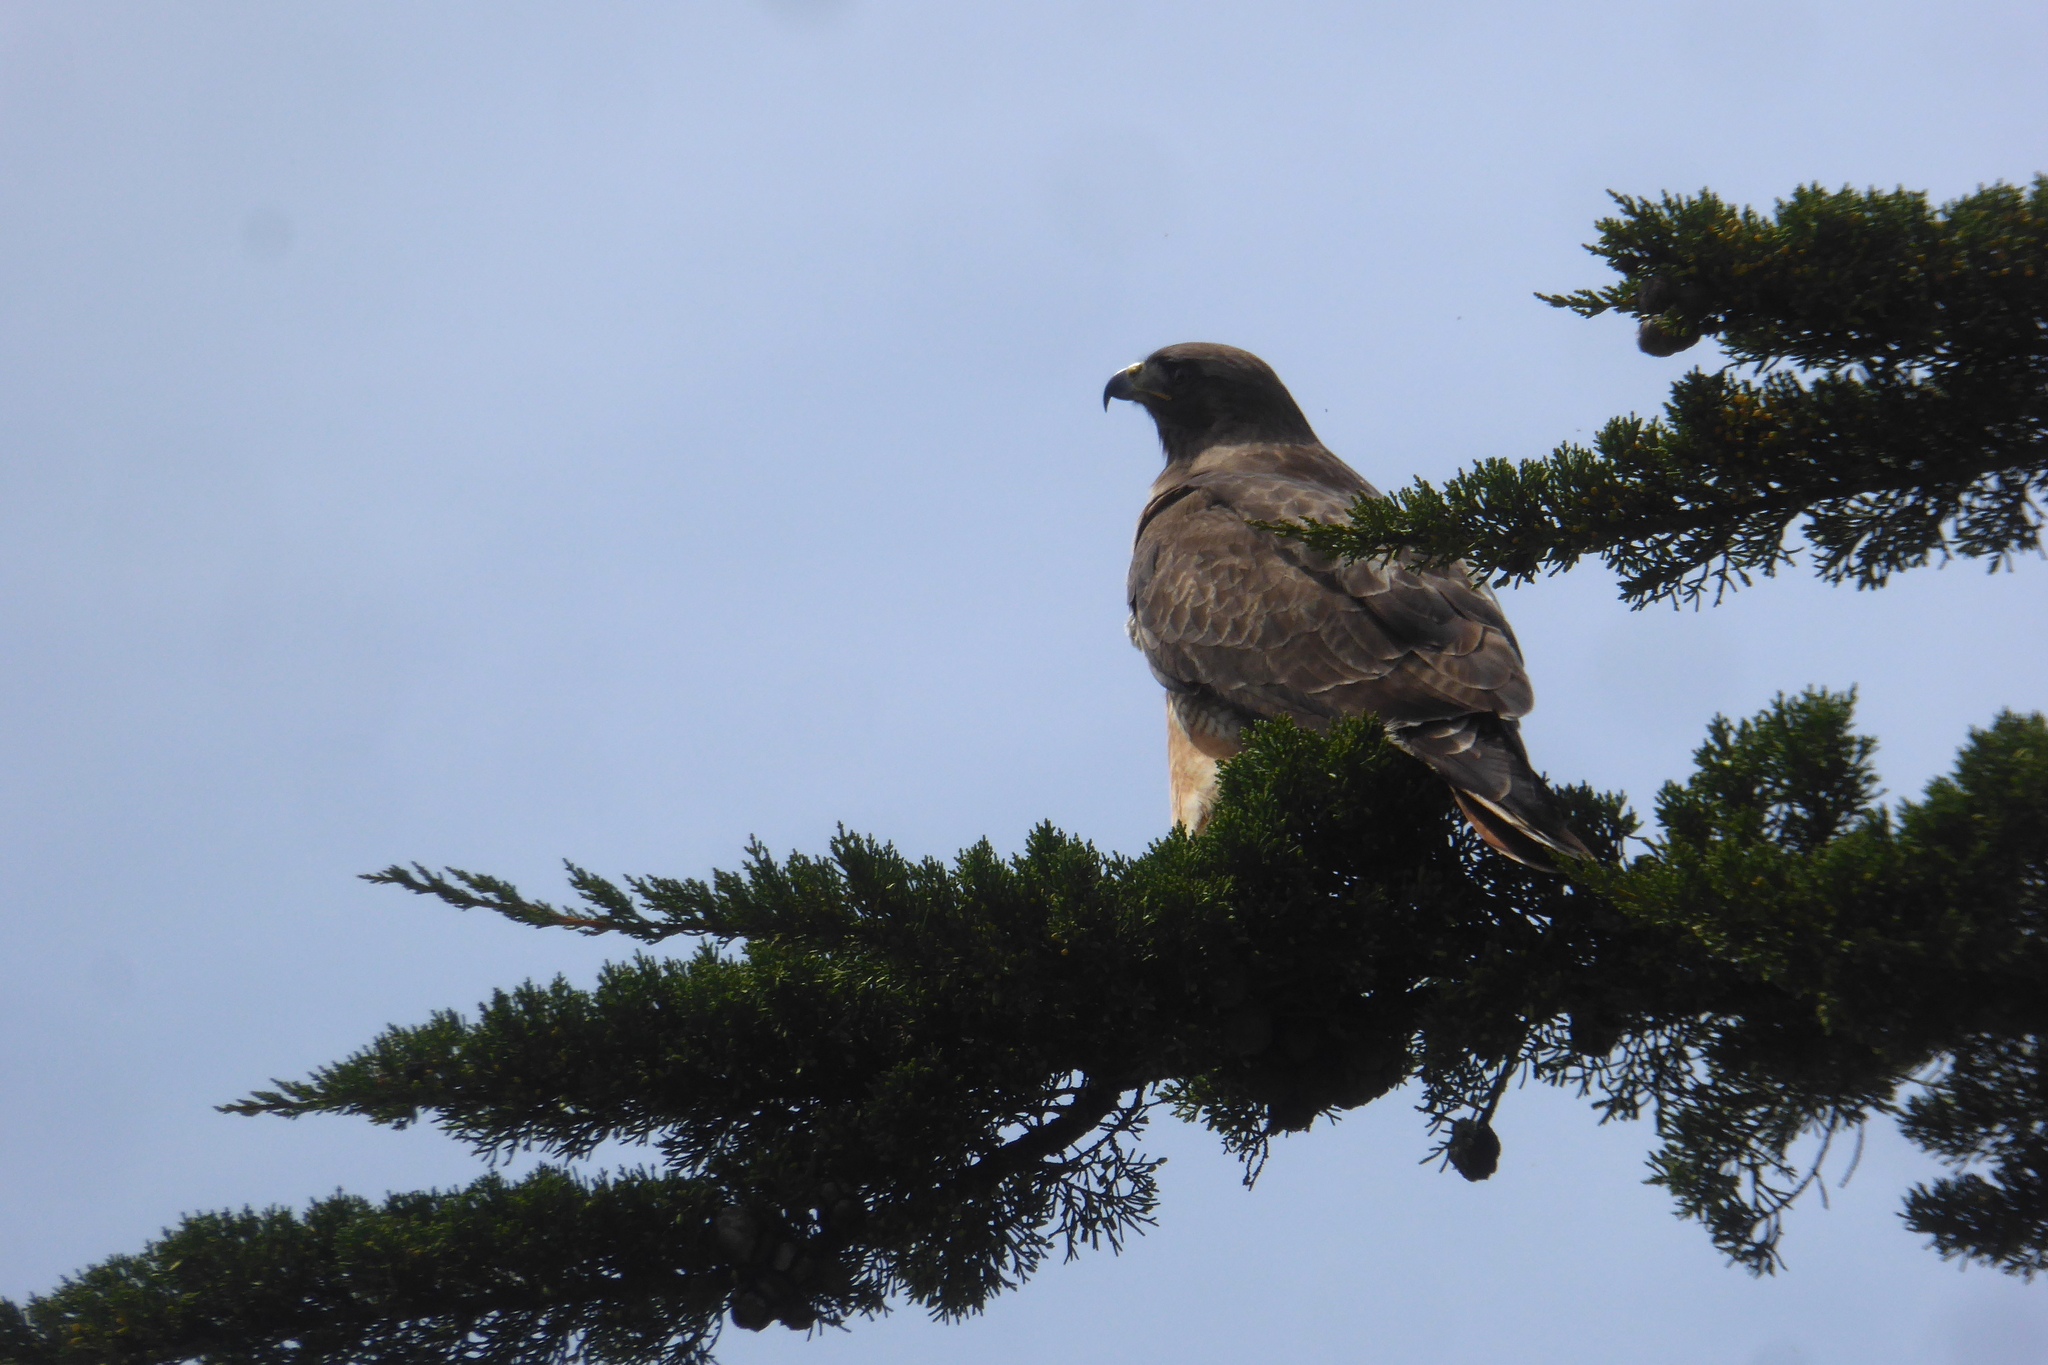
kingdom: Animalia
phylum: Chordata
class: Aves
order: Accipitriformes
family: Accipitridae
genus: Buteo
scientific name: Buteo jamaicensis
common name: Red-tailed hawk
